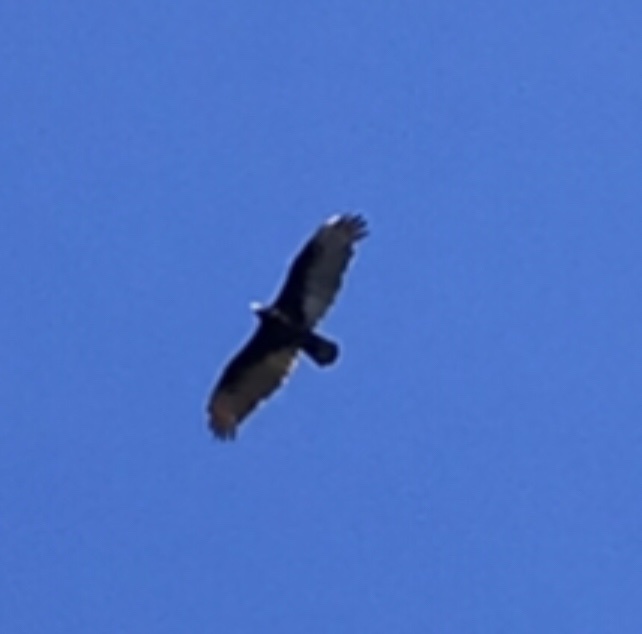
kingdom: Animalia
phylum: Chordata
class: Aves
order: Accipitriformes
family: Cathartidae
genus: Cathartes
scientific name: Cathartes aura
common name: Turkey vulture
